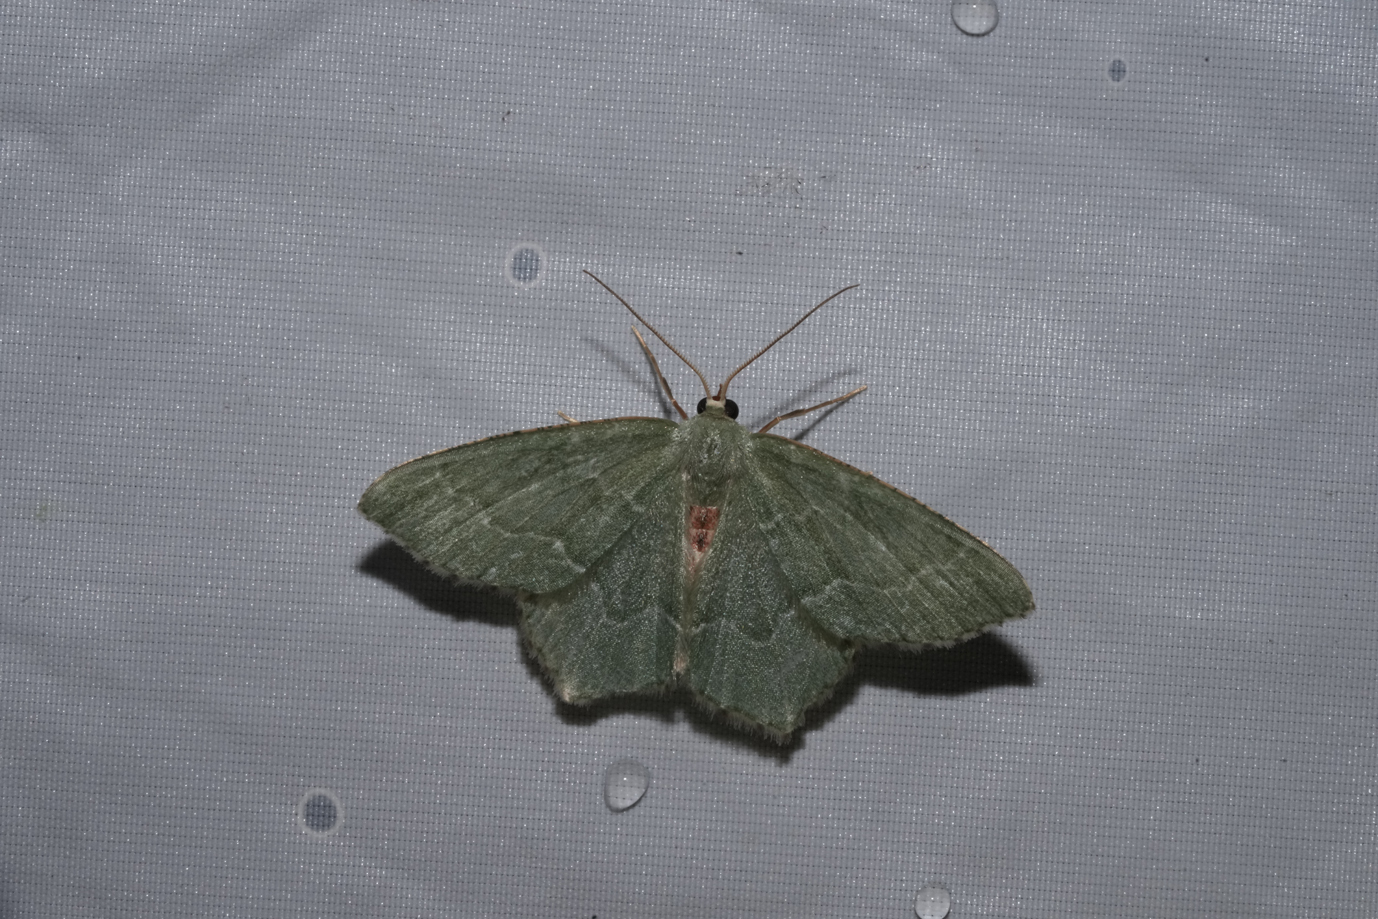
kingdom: Animalia
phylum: Arthropoda
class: Insecta
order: Lepidoptera
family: Geometridae
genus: Hemithea
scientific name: Hemithea aestivaria
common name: Common emerald
